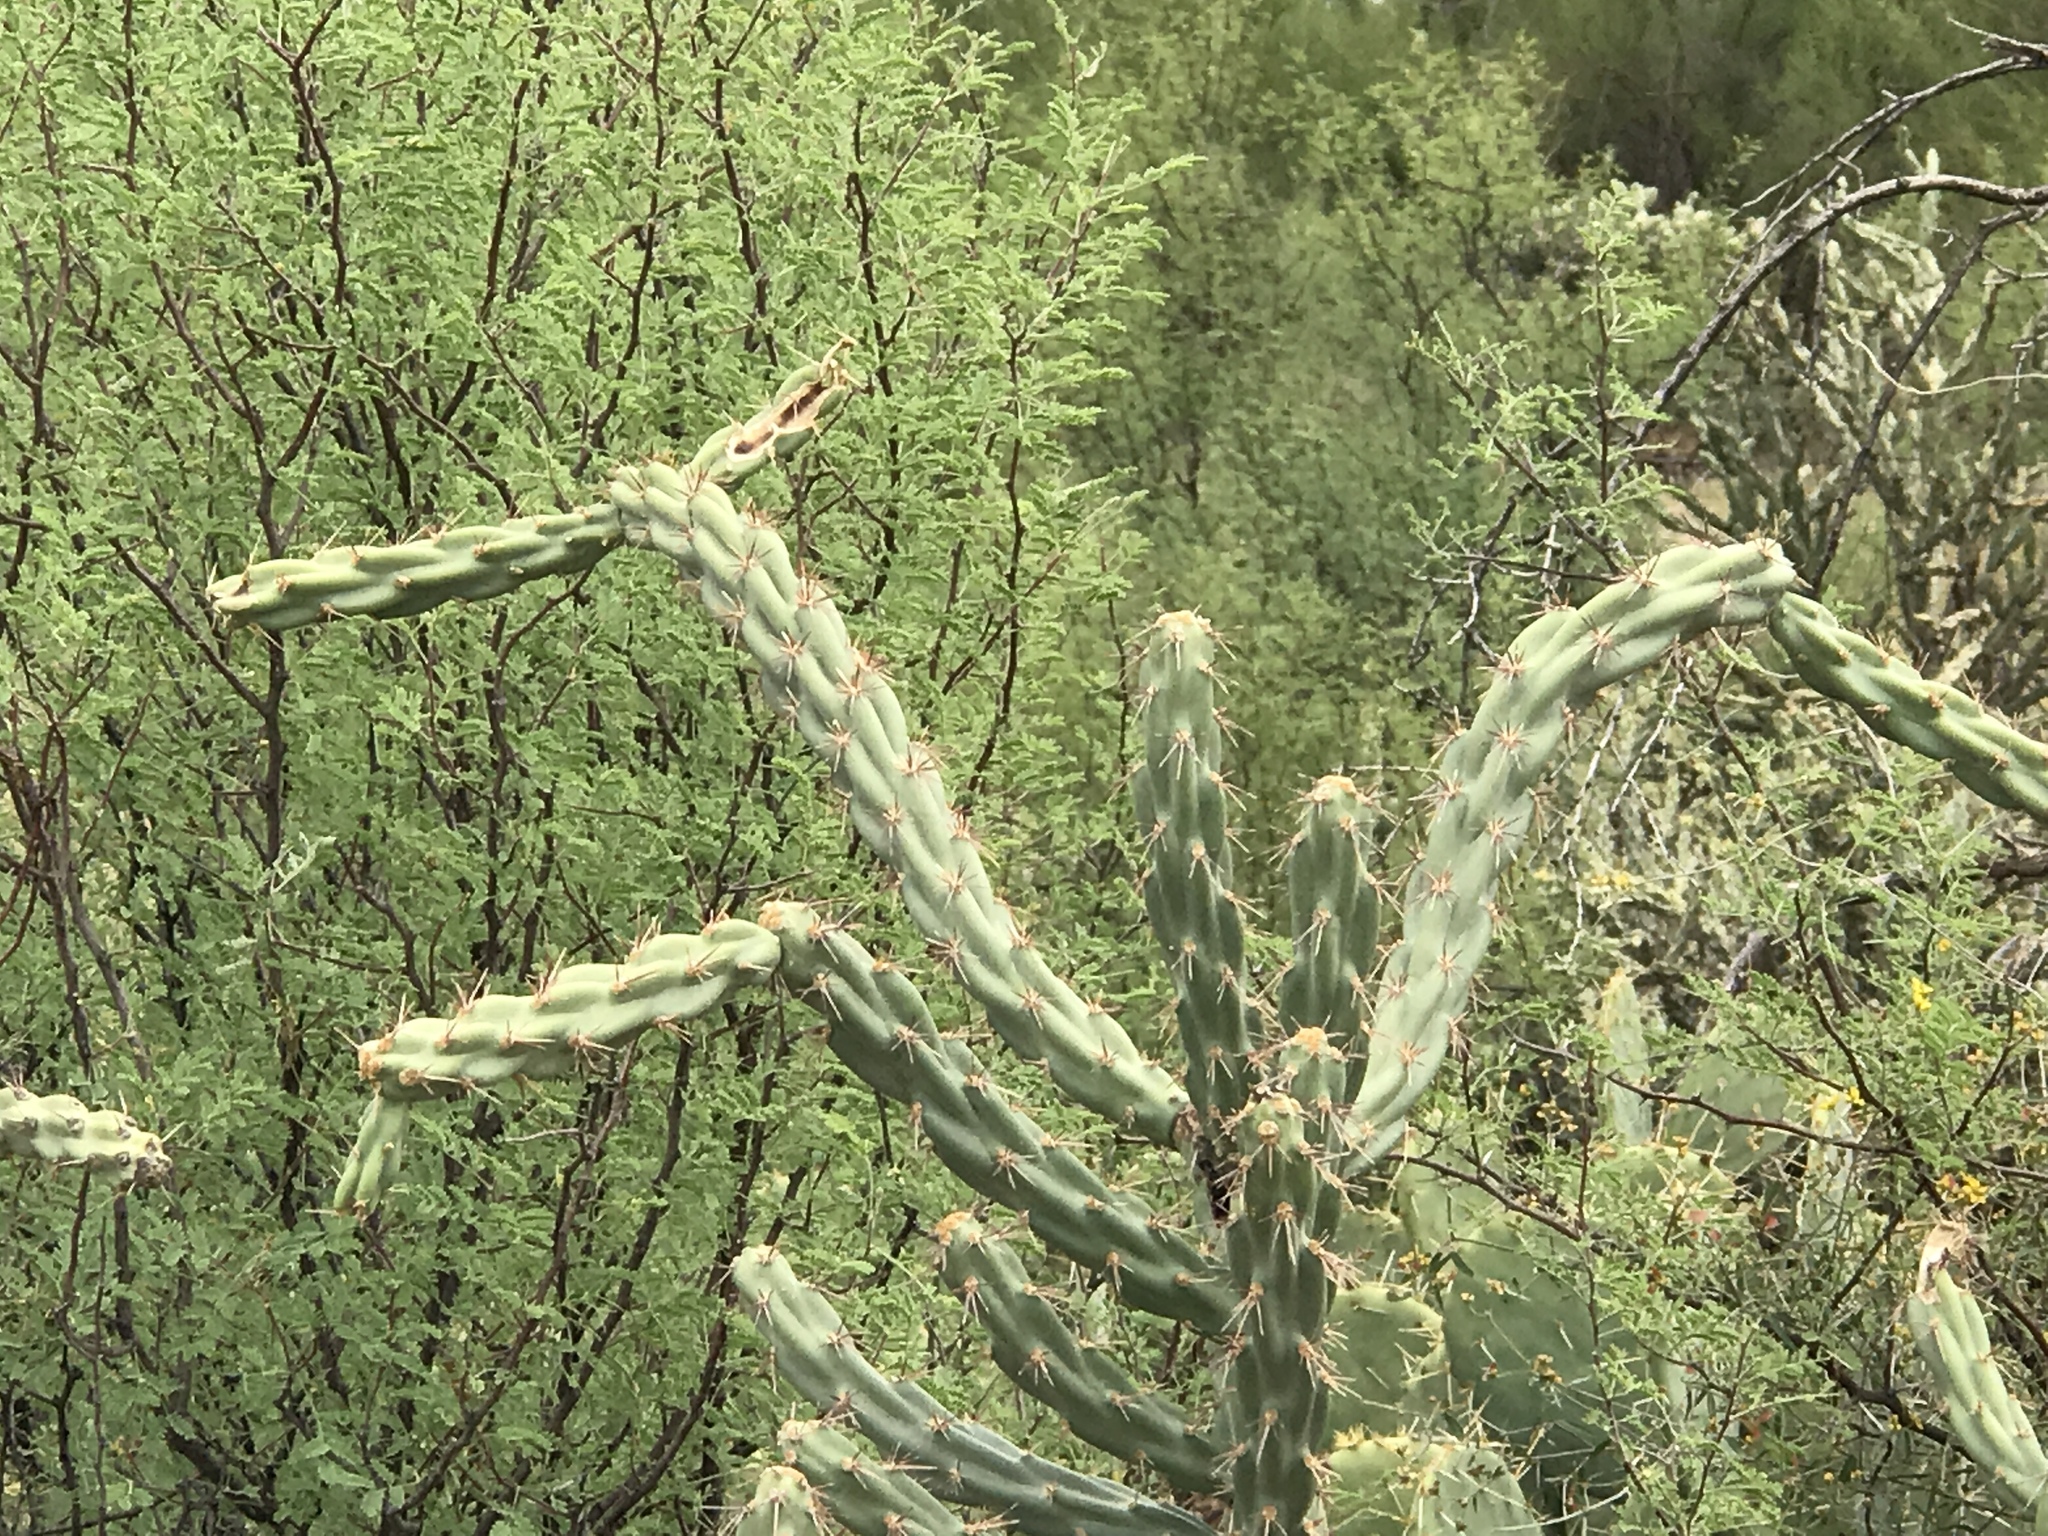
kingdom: Plantae
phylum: Tracheophyta
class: Magnoliopsida
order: Caryophyllales
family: Cactaceae
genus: Cylindropuntia
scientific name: Cylindropuntia acanthocarpa
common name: Buckhorn cholla
